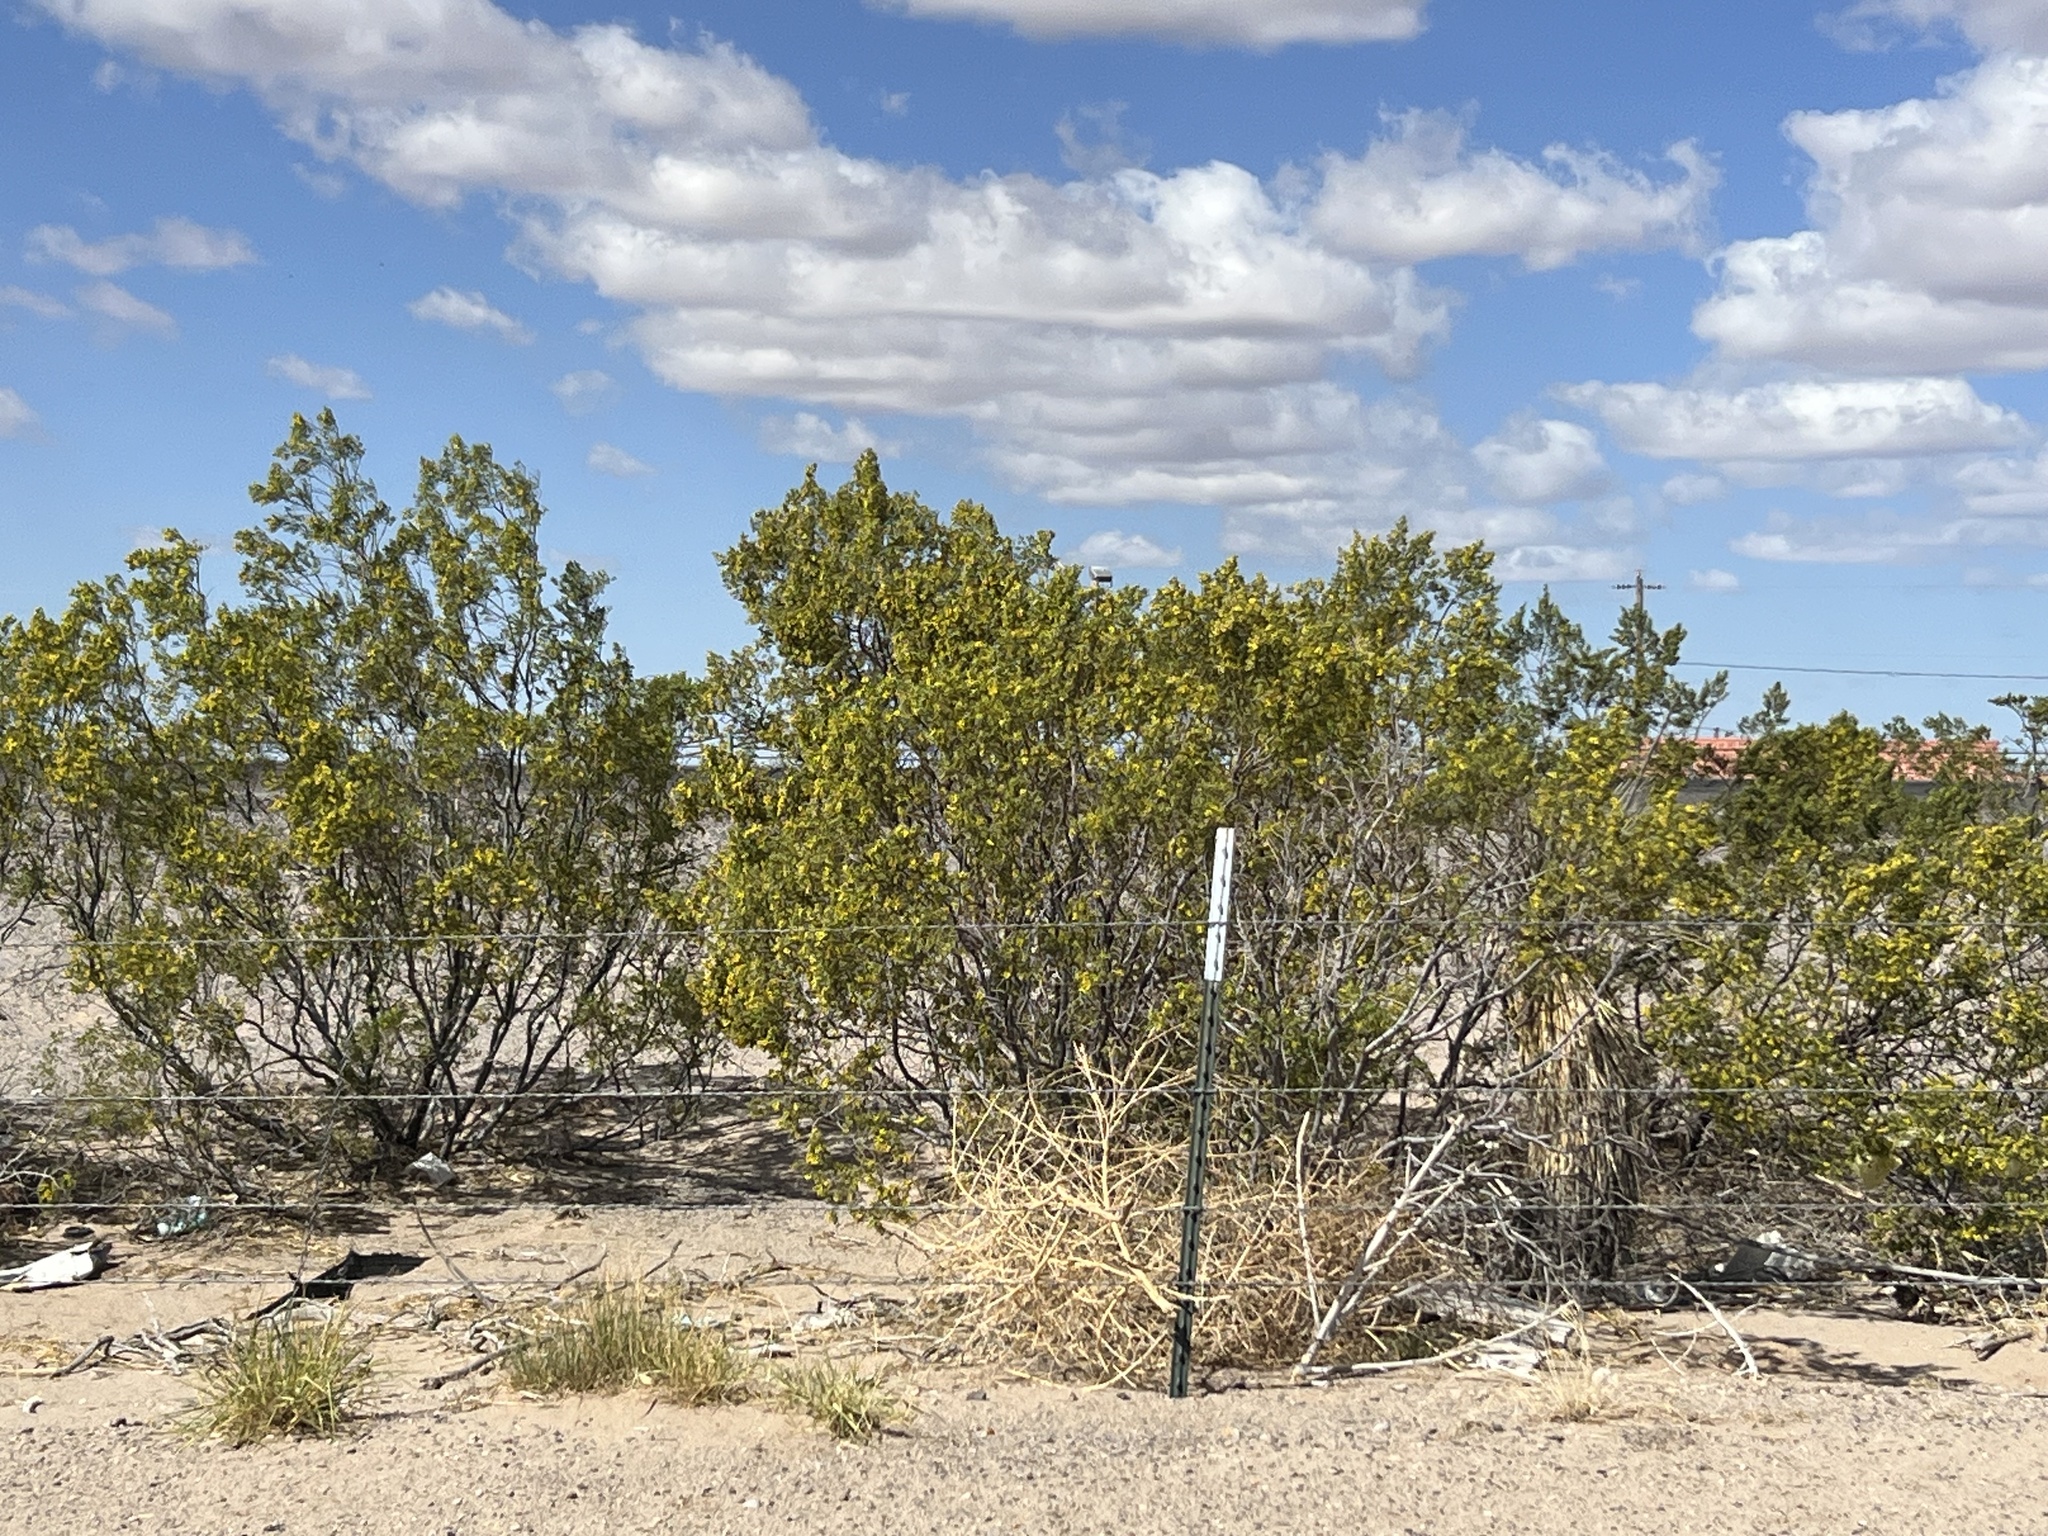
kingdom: Plantae
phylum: Tracheophyta
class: Magnoliopsida
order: Zygophyllales
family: Zygophyllaceae
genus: Larrea
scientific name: Larrea tridentata
